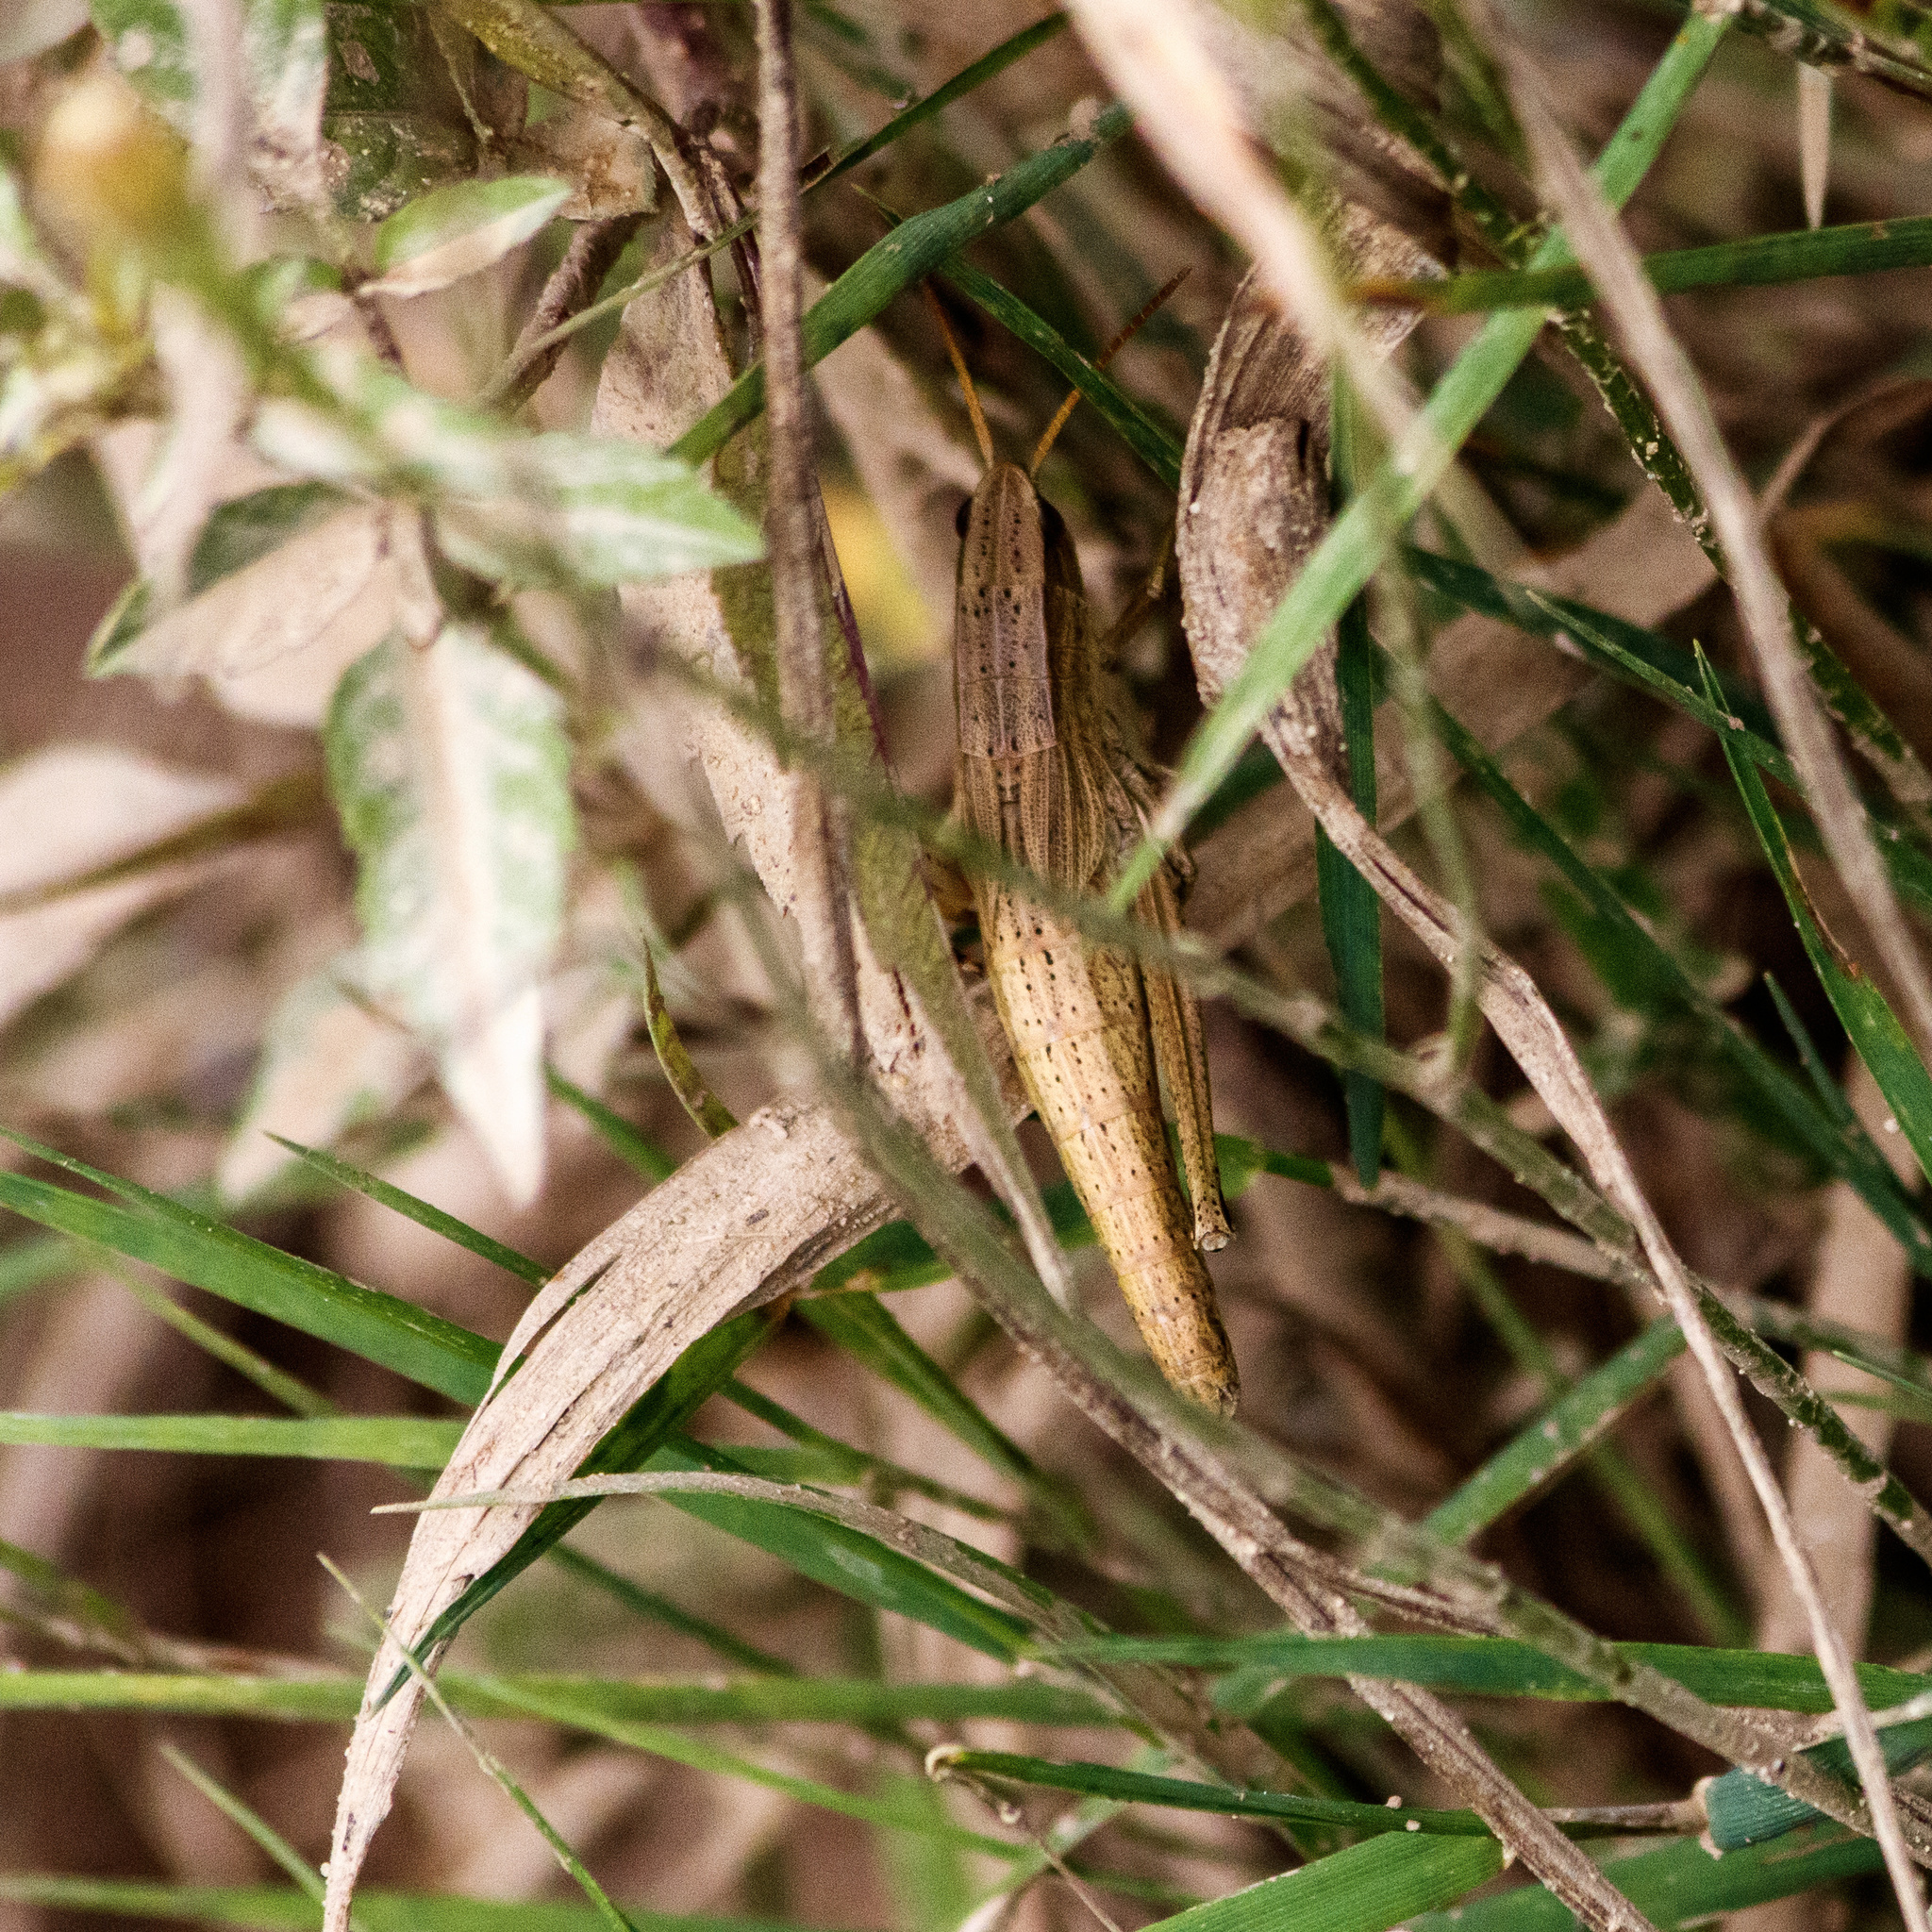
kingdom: Animalia
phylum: Arthropoda
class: Insecta
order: Orthoptera
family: Acrididae
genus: Chrysochraon
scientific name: Chrysochraon dispar
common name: Large gold grasshopper
